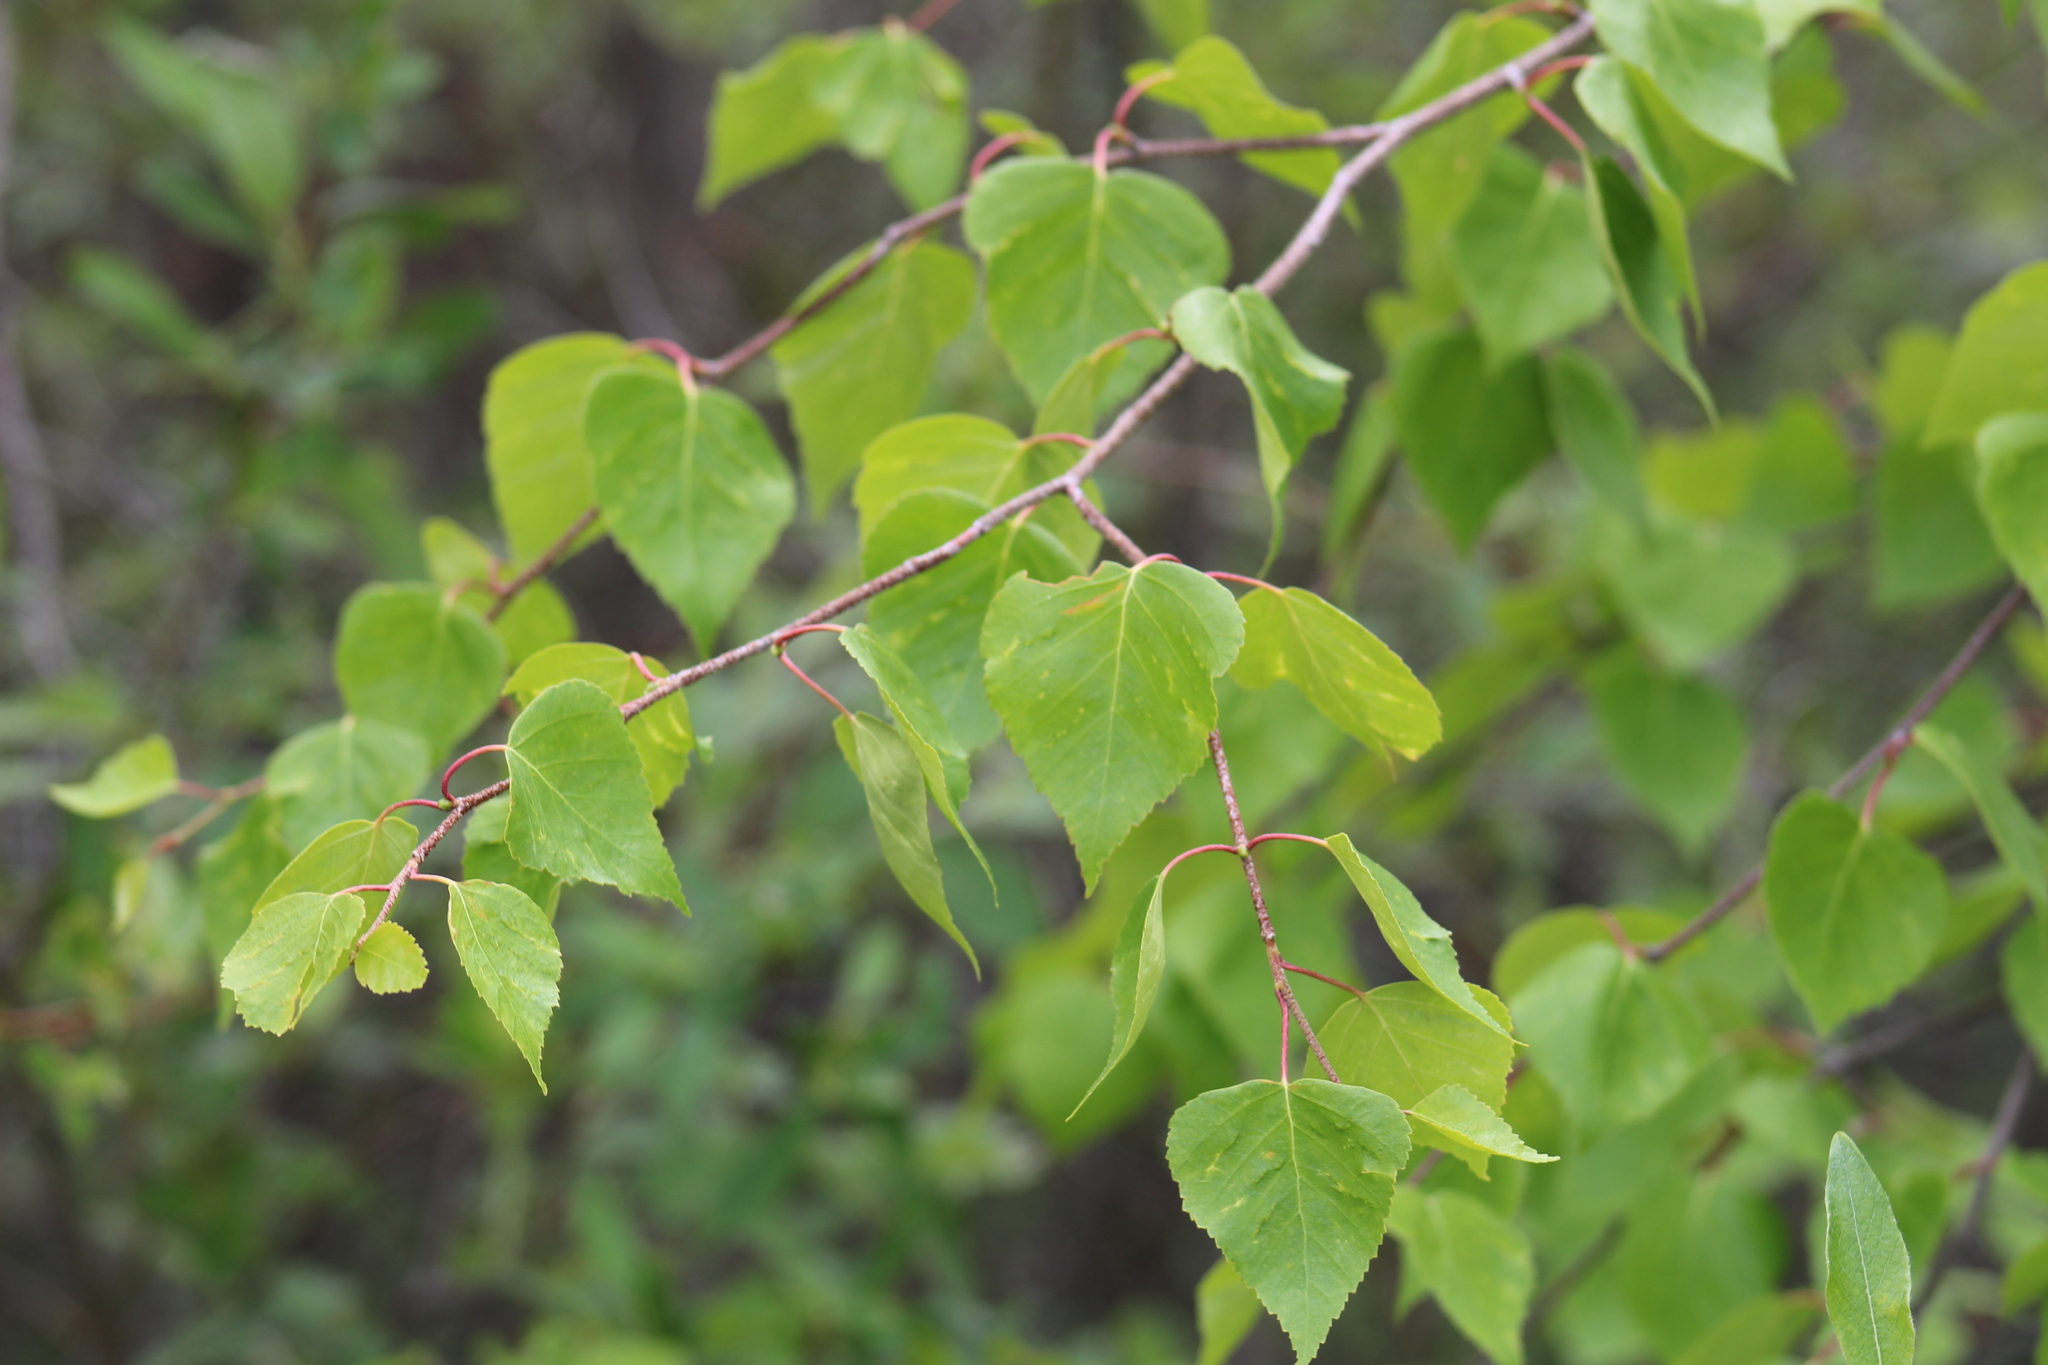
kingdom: Plantae
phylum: Tracheophyta
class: Magnoliopsida
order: Fagales
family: Betulaceae
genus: Betula
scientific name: Betula pendula
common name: Silver birch
